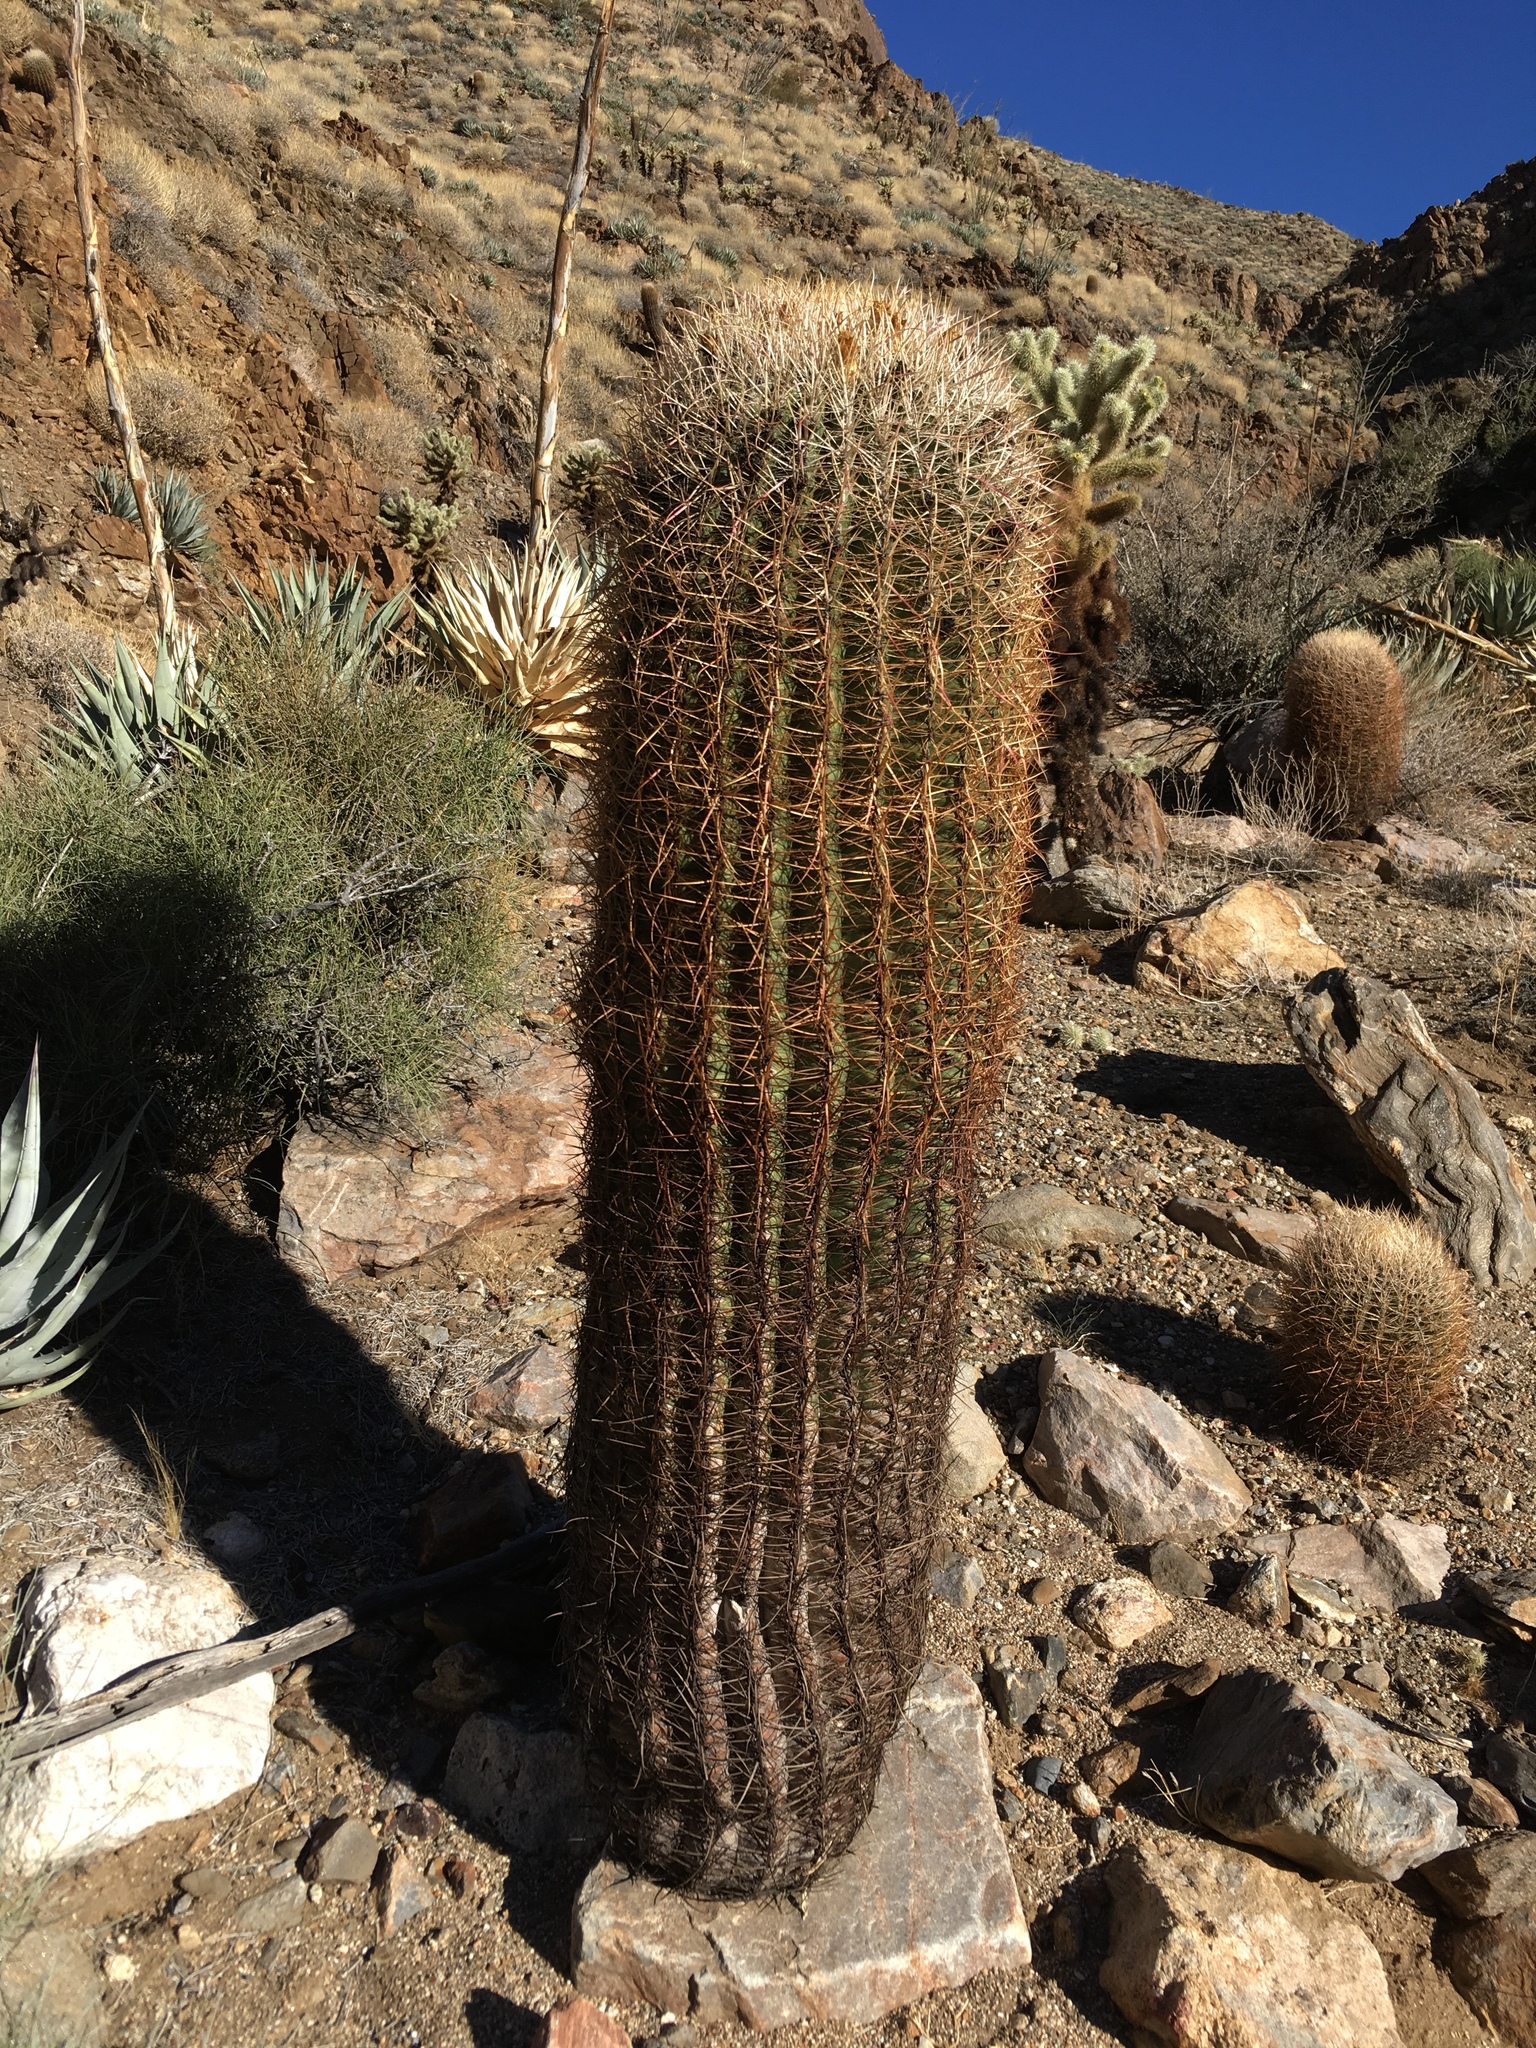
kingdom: Plantae
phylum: Tracheophyta
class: Magnoliopsida
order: Caryophyllales
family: Cactaceae
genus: Ferocactus
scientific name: Ferocactus cylindraceus
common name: California barrel cactus
